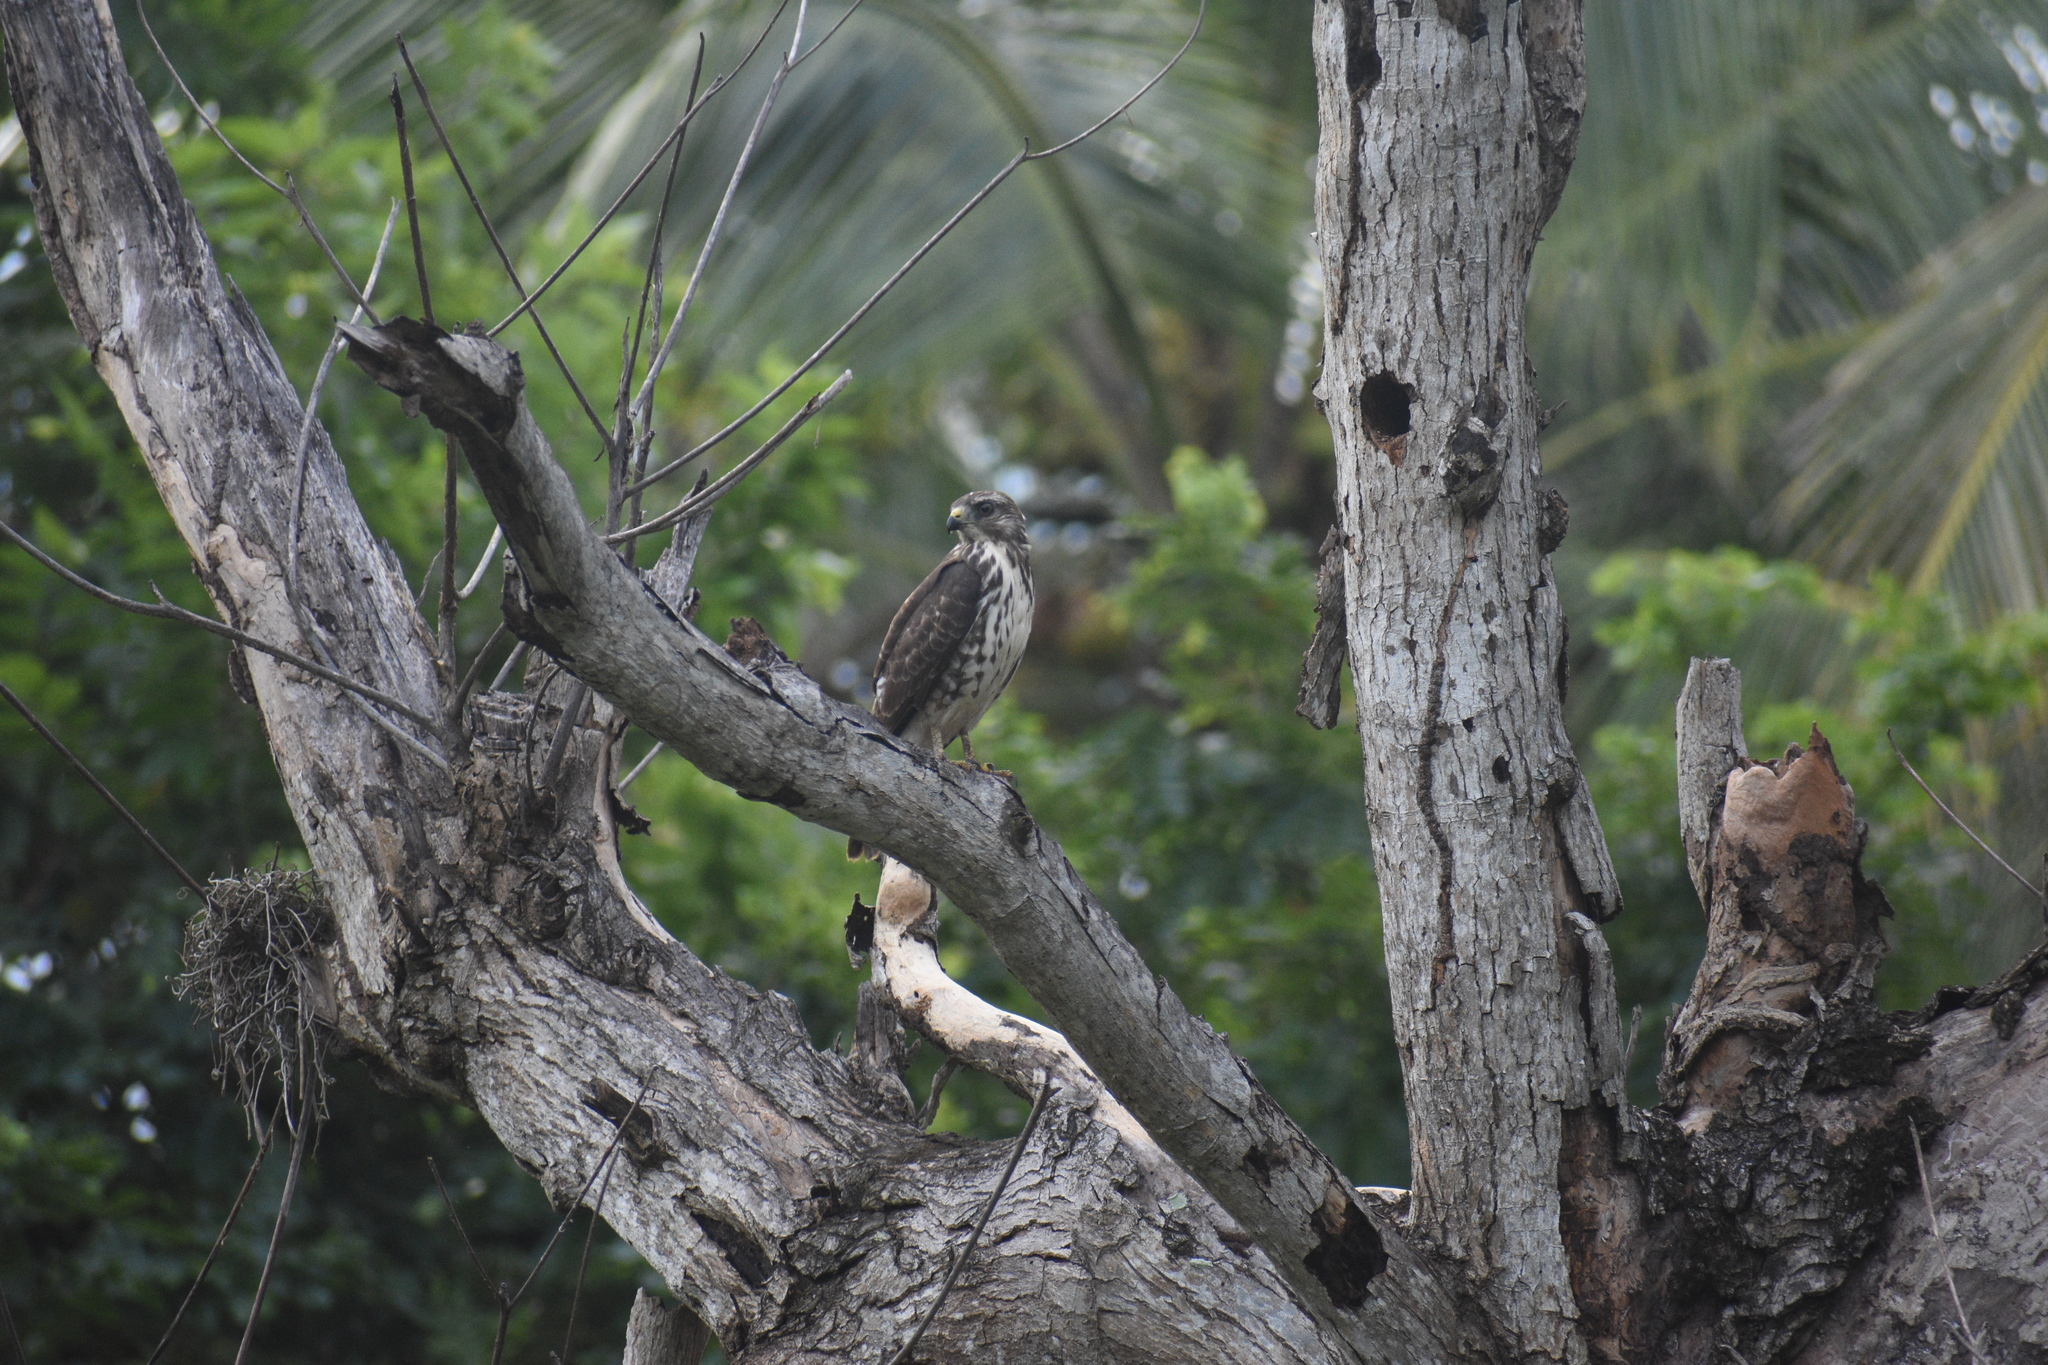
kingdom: Animalia
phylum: Chordata
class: Aves
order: Accipitriformes
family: Accipitridae
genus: Buteo
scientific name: Buteo platypterus
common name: Broad-winged hawk
